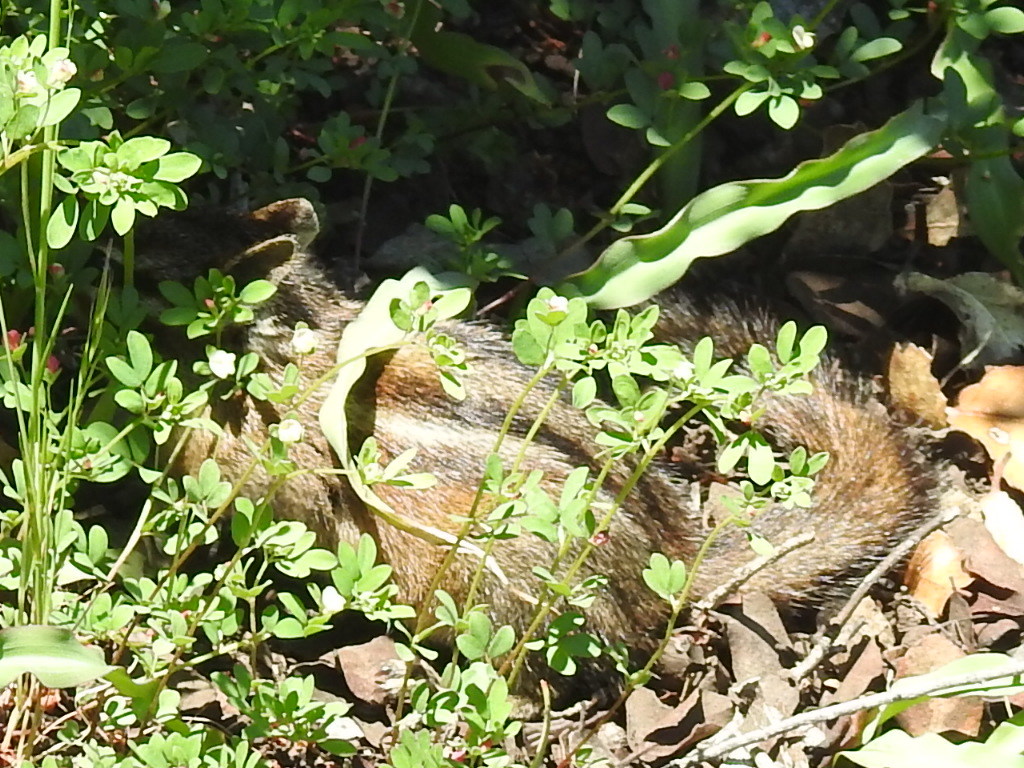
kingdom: Animalia
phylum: Chordata
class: Mammalia
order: Rodentia
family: Sciuridae
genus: Tamias
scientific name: Tamias sonomae
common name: Sonoma chipmunk
